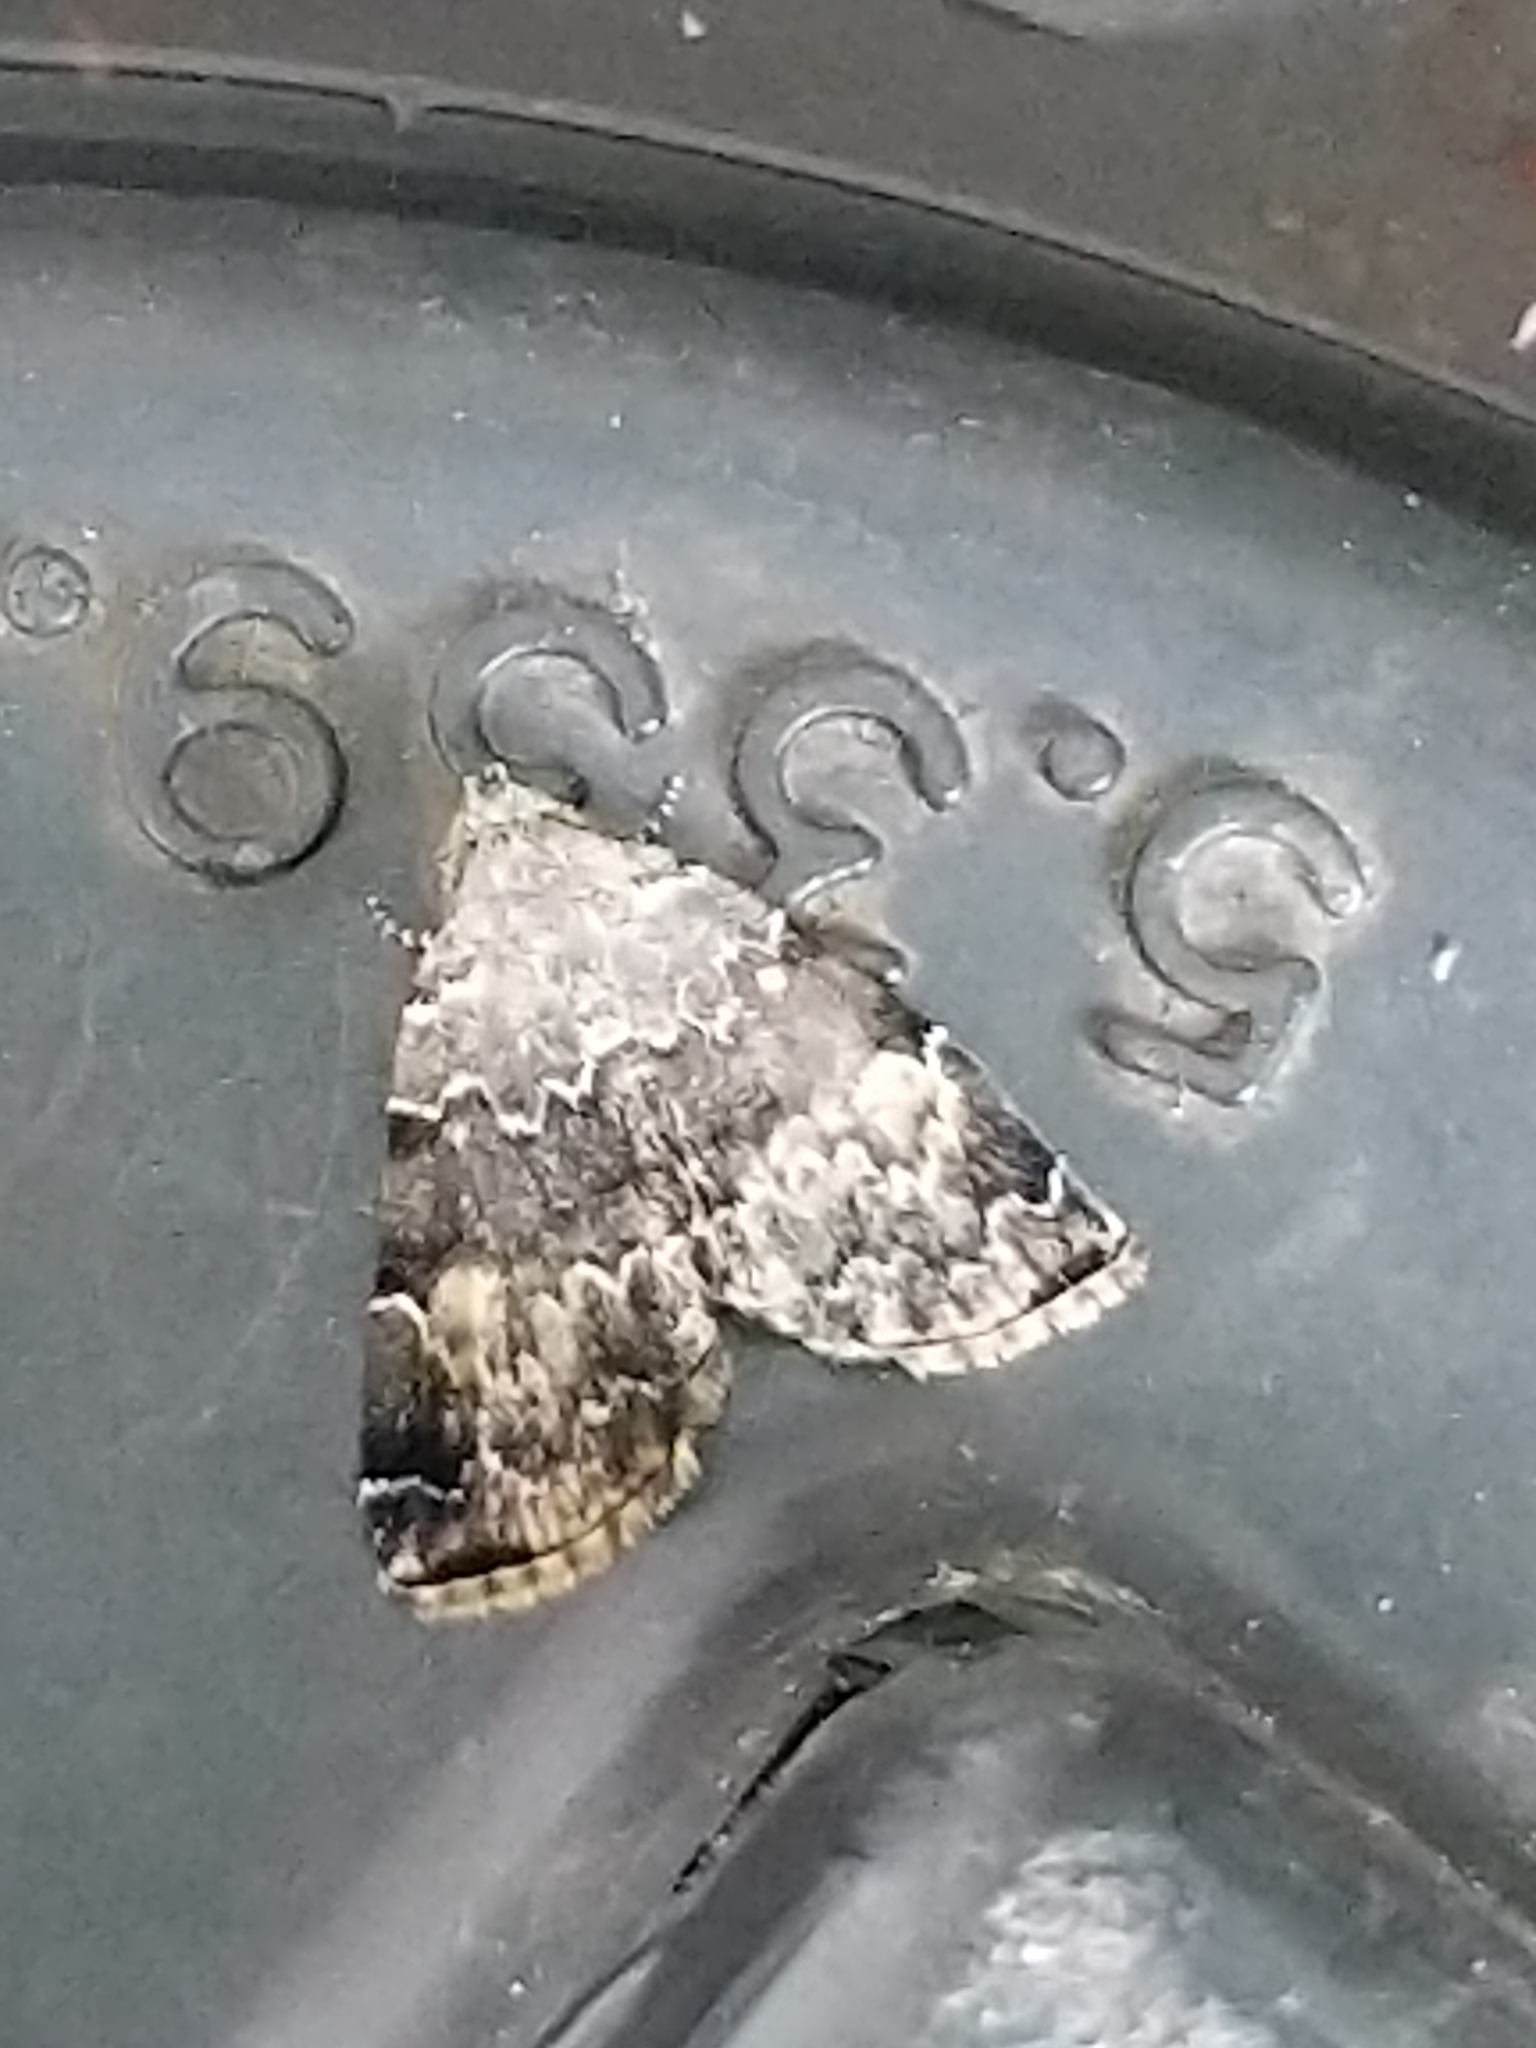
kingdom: Animalia
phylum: Arthropoda
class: Insecta
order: Lepidoptera
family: Erebidae
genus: Idia
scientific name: Idia americalis
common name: American idia moth
